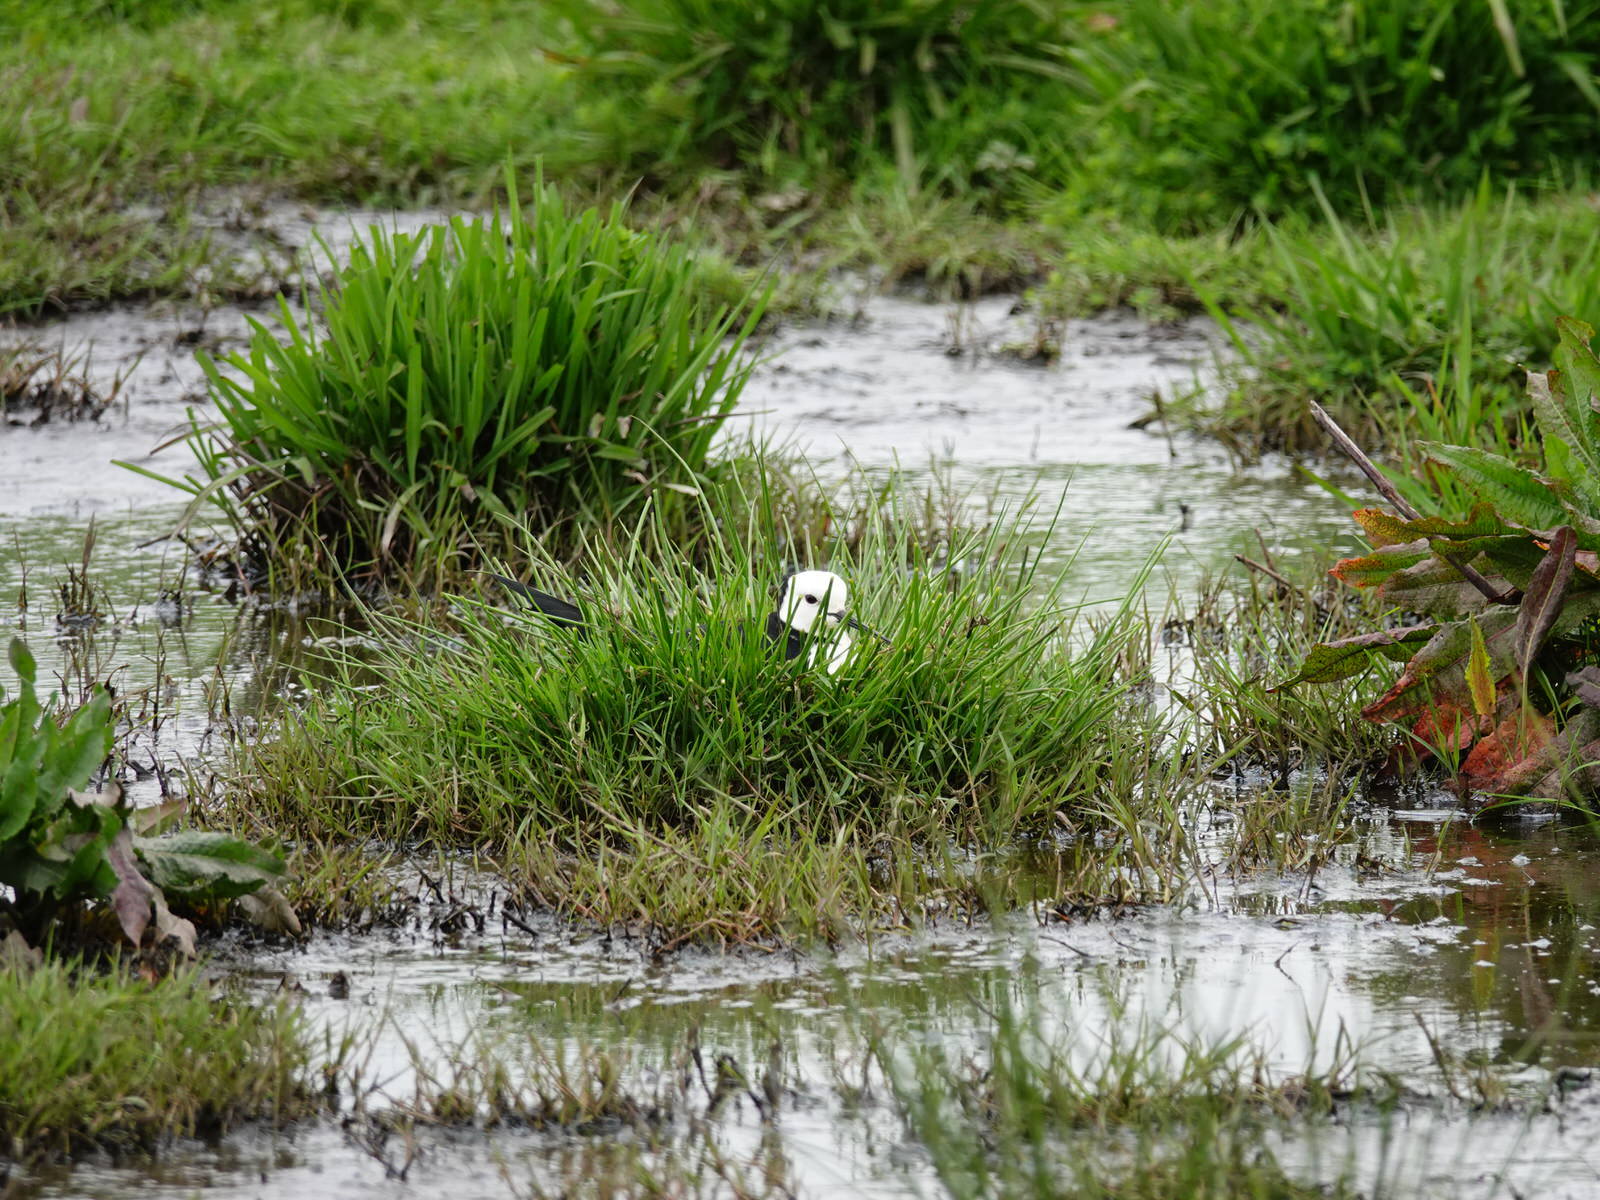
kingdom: Animalia
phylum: Chordata
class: Aves
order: Charadriiformes
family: Recurvirostridae
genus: Himantopus
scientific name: Himantopus leucocephalus
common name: White-headed stilt
